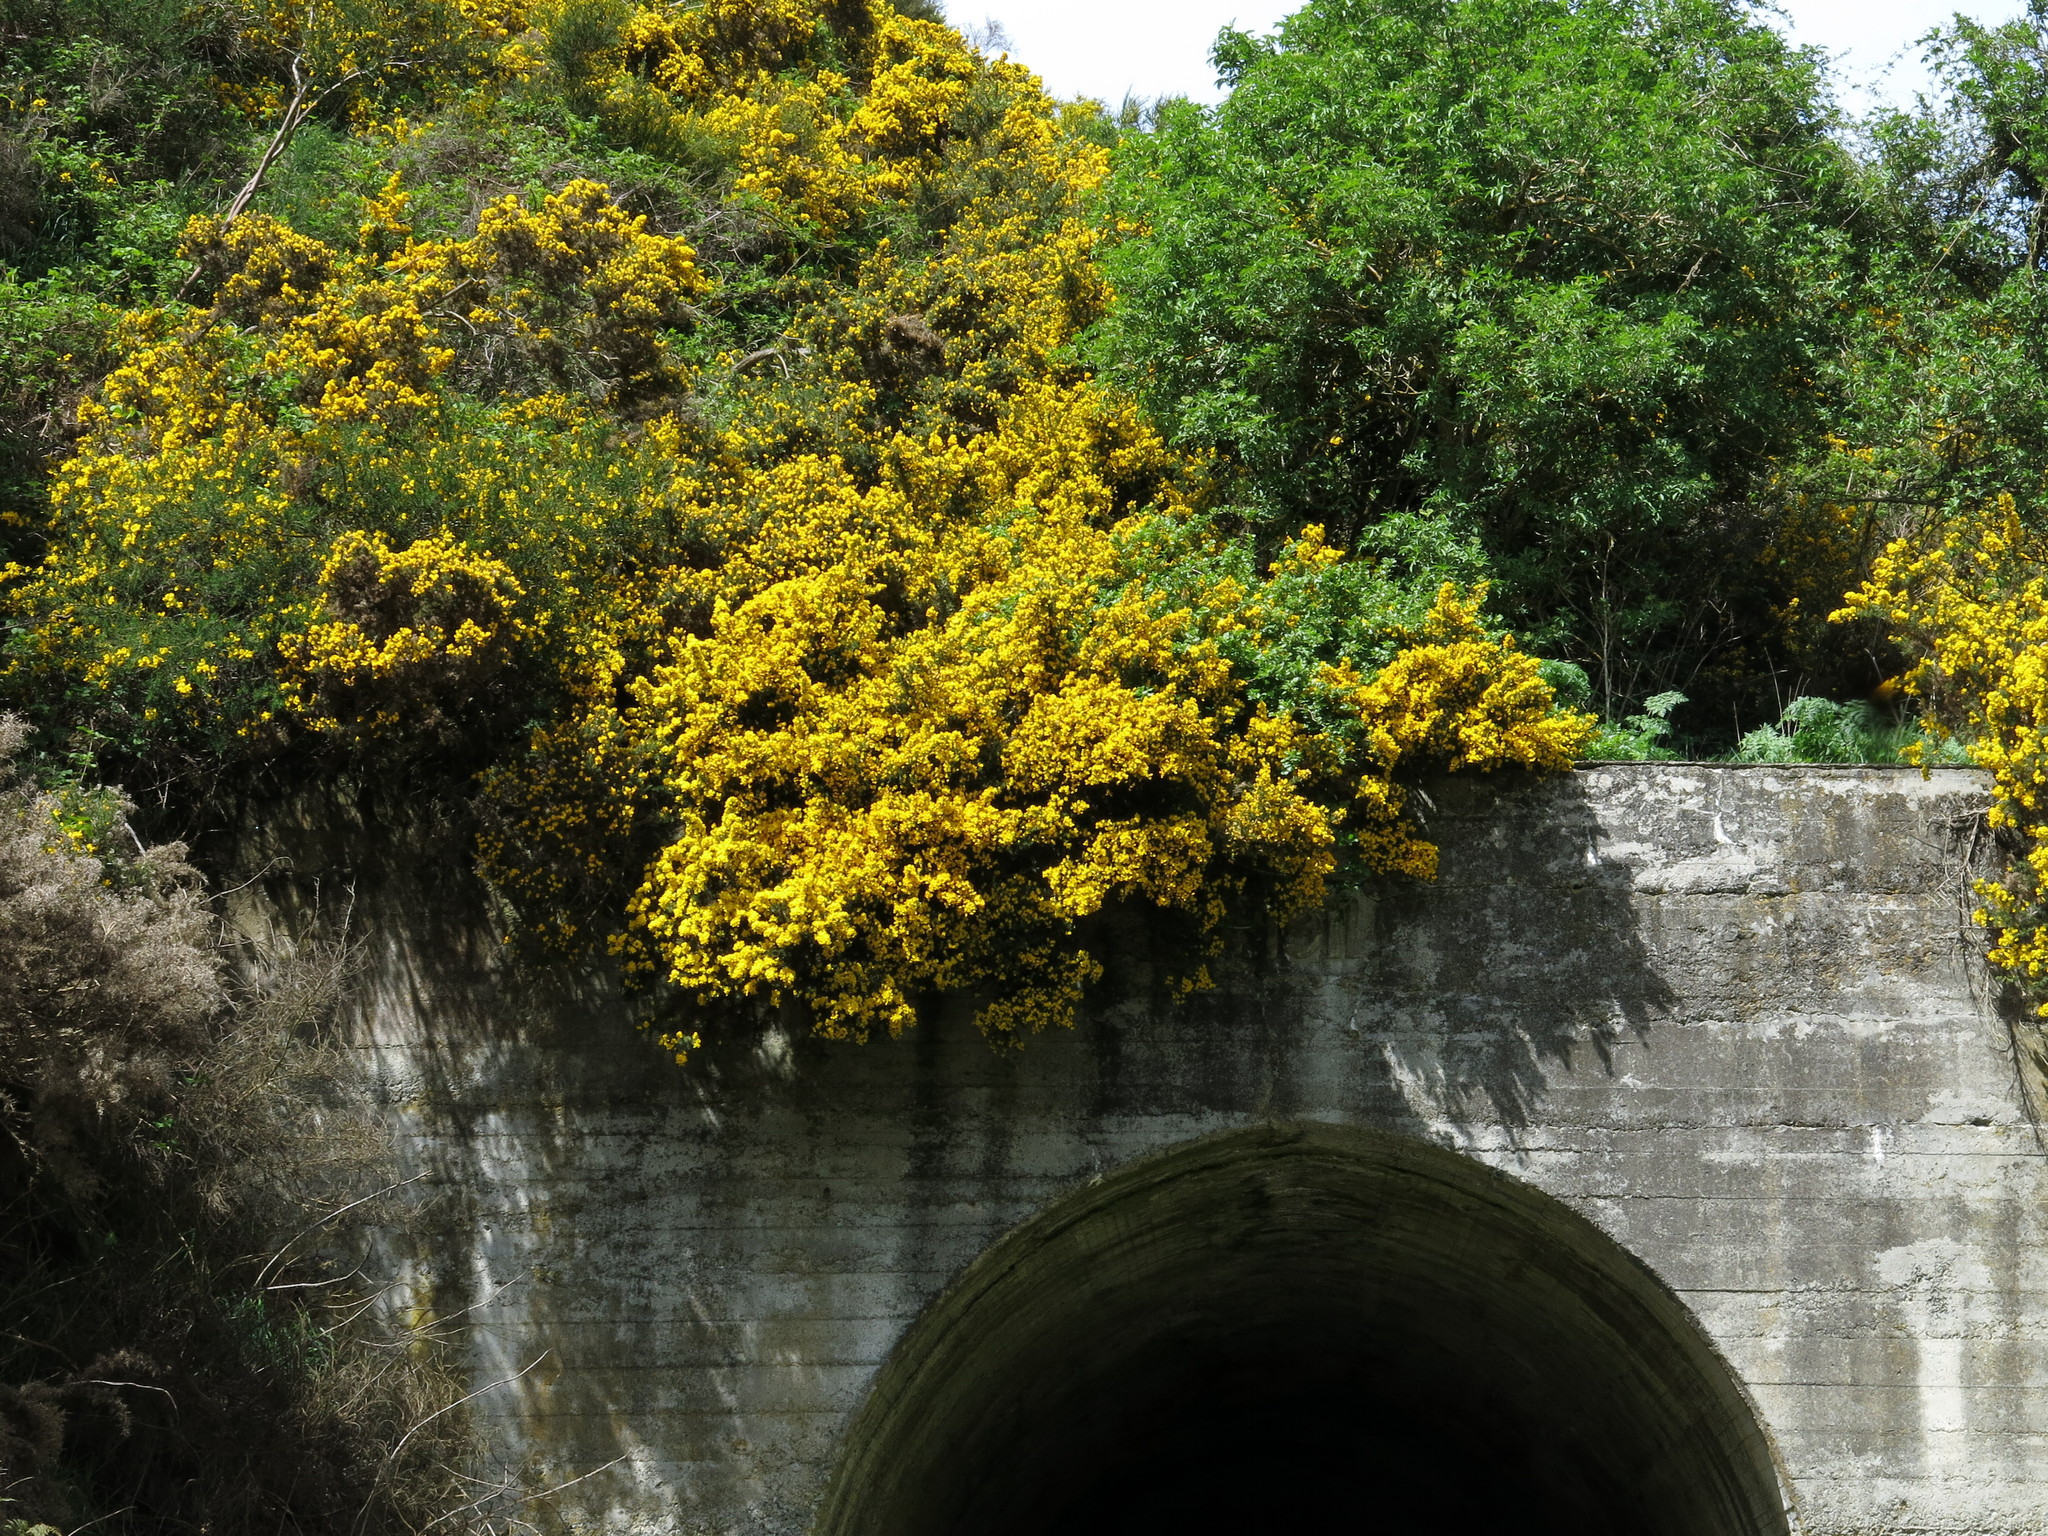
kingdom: Plantae
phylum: Tracheophyta
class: Magnoliopsida
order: Fabales
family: Fabaceae
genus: Ulex
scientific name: Ulex europaeus
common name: Common gorse
